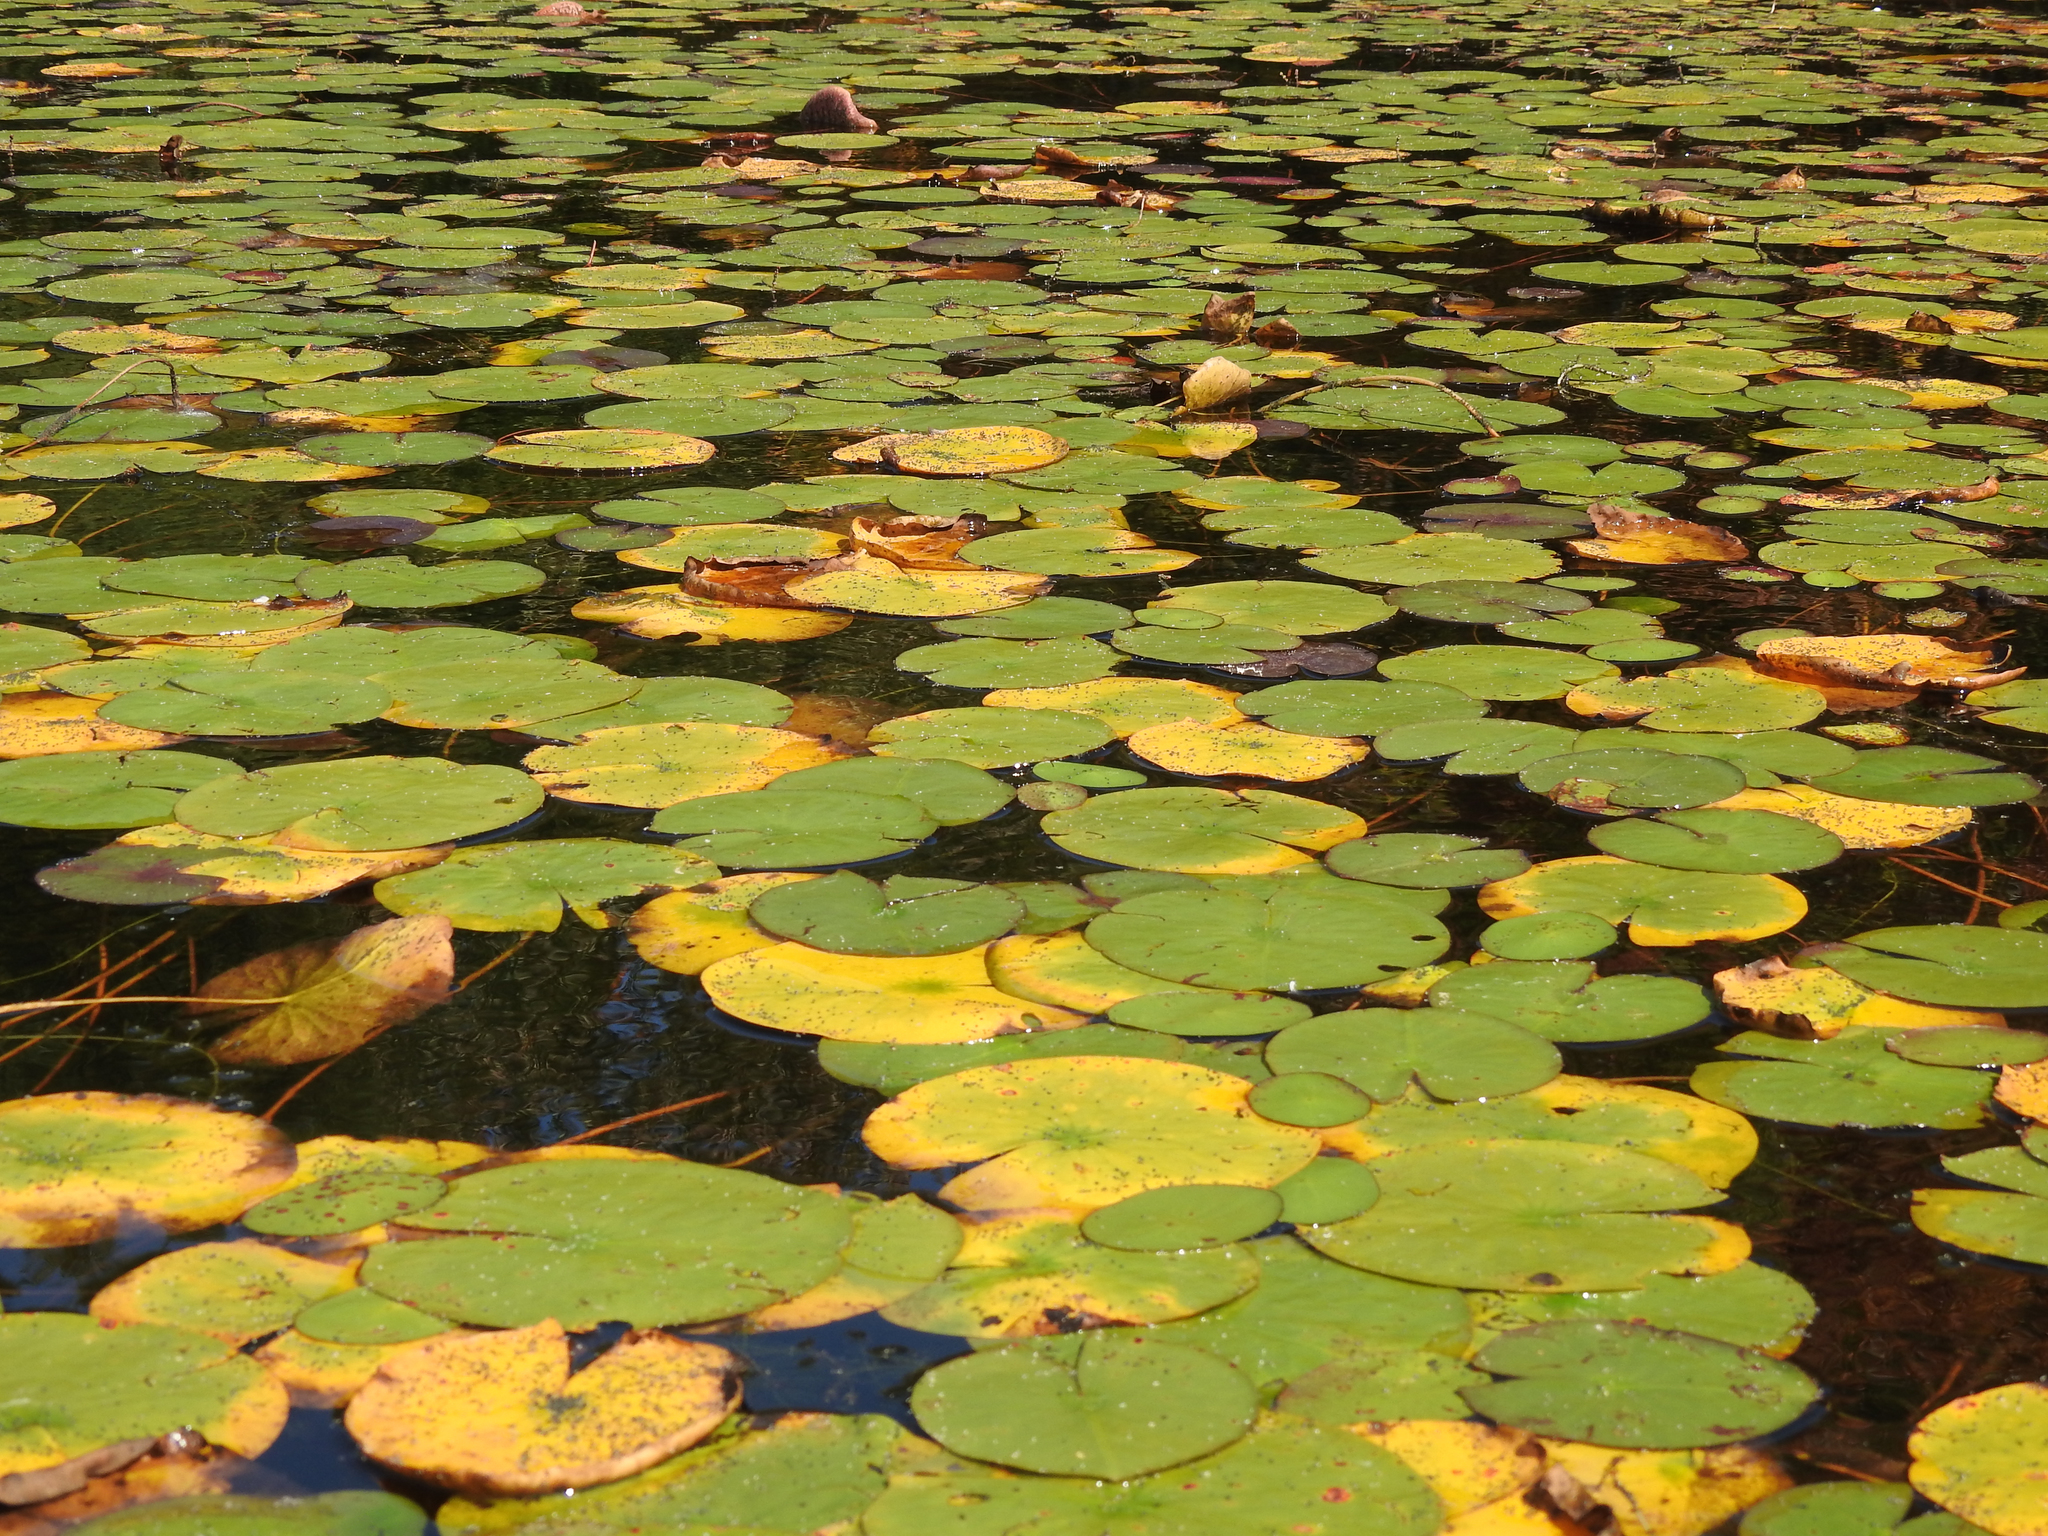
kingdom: Plantae
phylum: Tracheophyta
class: Magnoliopsida
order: Nymphaeales
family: Nymphaeaceae
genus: Nymphaea
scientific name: Nymphaea odorata
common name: Fragrant water-lily
